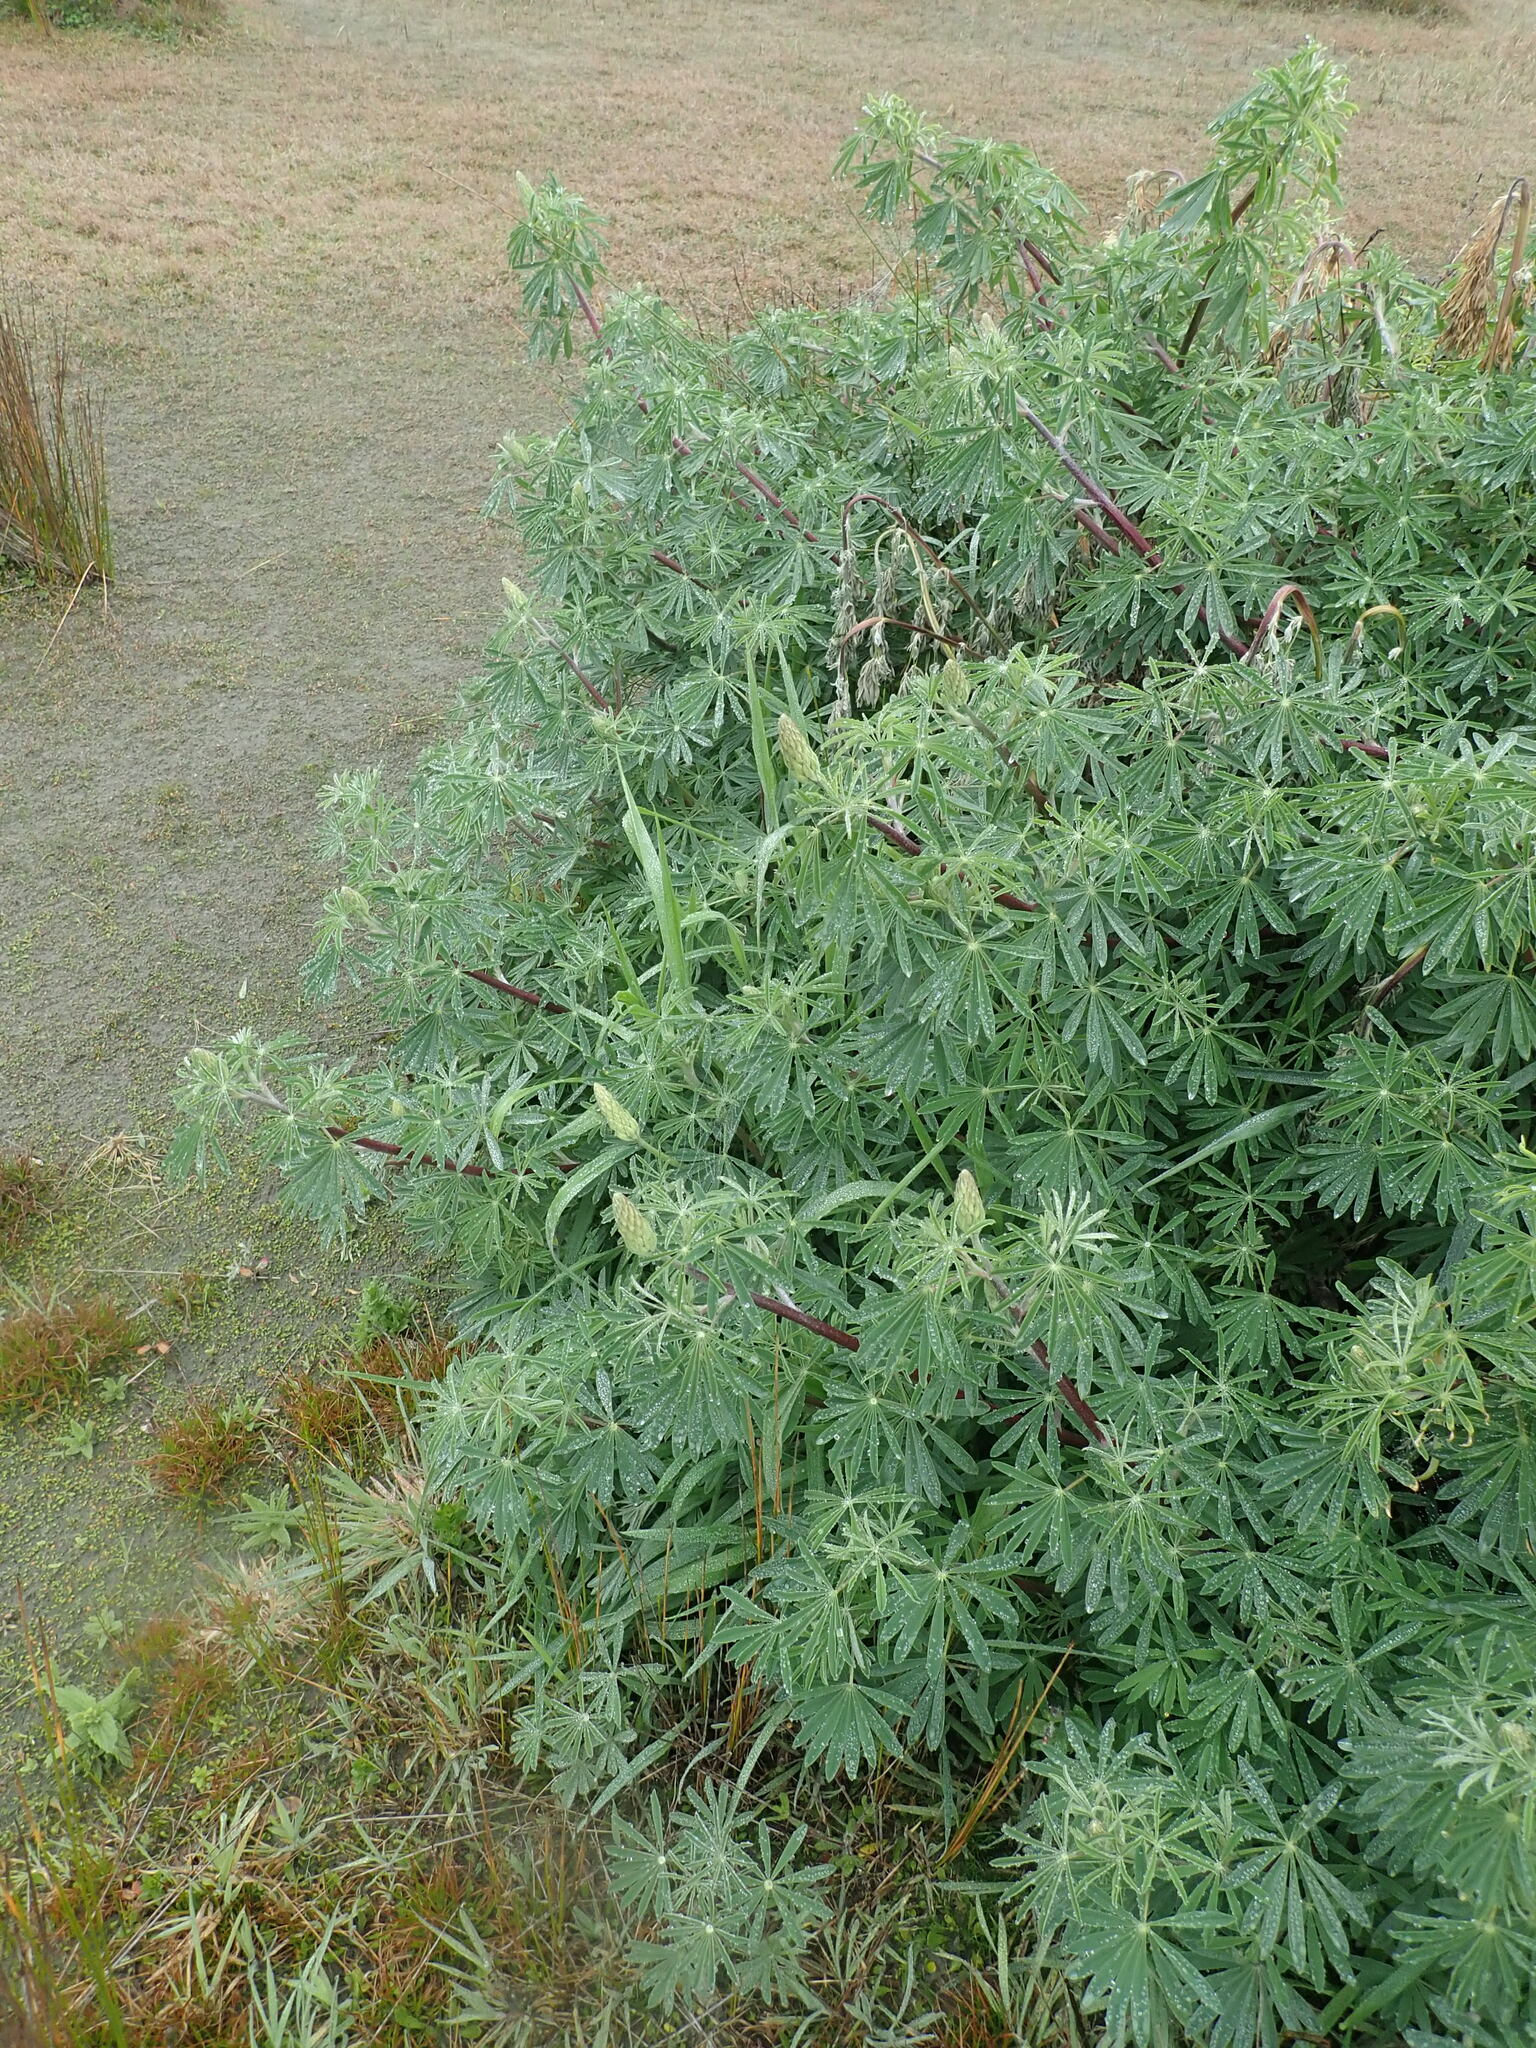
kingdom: Plantae
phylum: Tracheophyta
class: Magnoliopsida
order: Fabales
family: Fabaceae
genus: Lupinus
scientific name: Lupinus arboreus
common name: Yellow bush lupine
